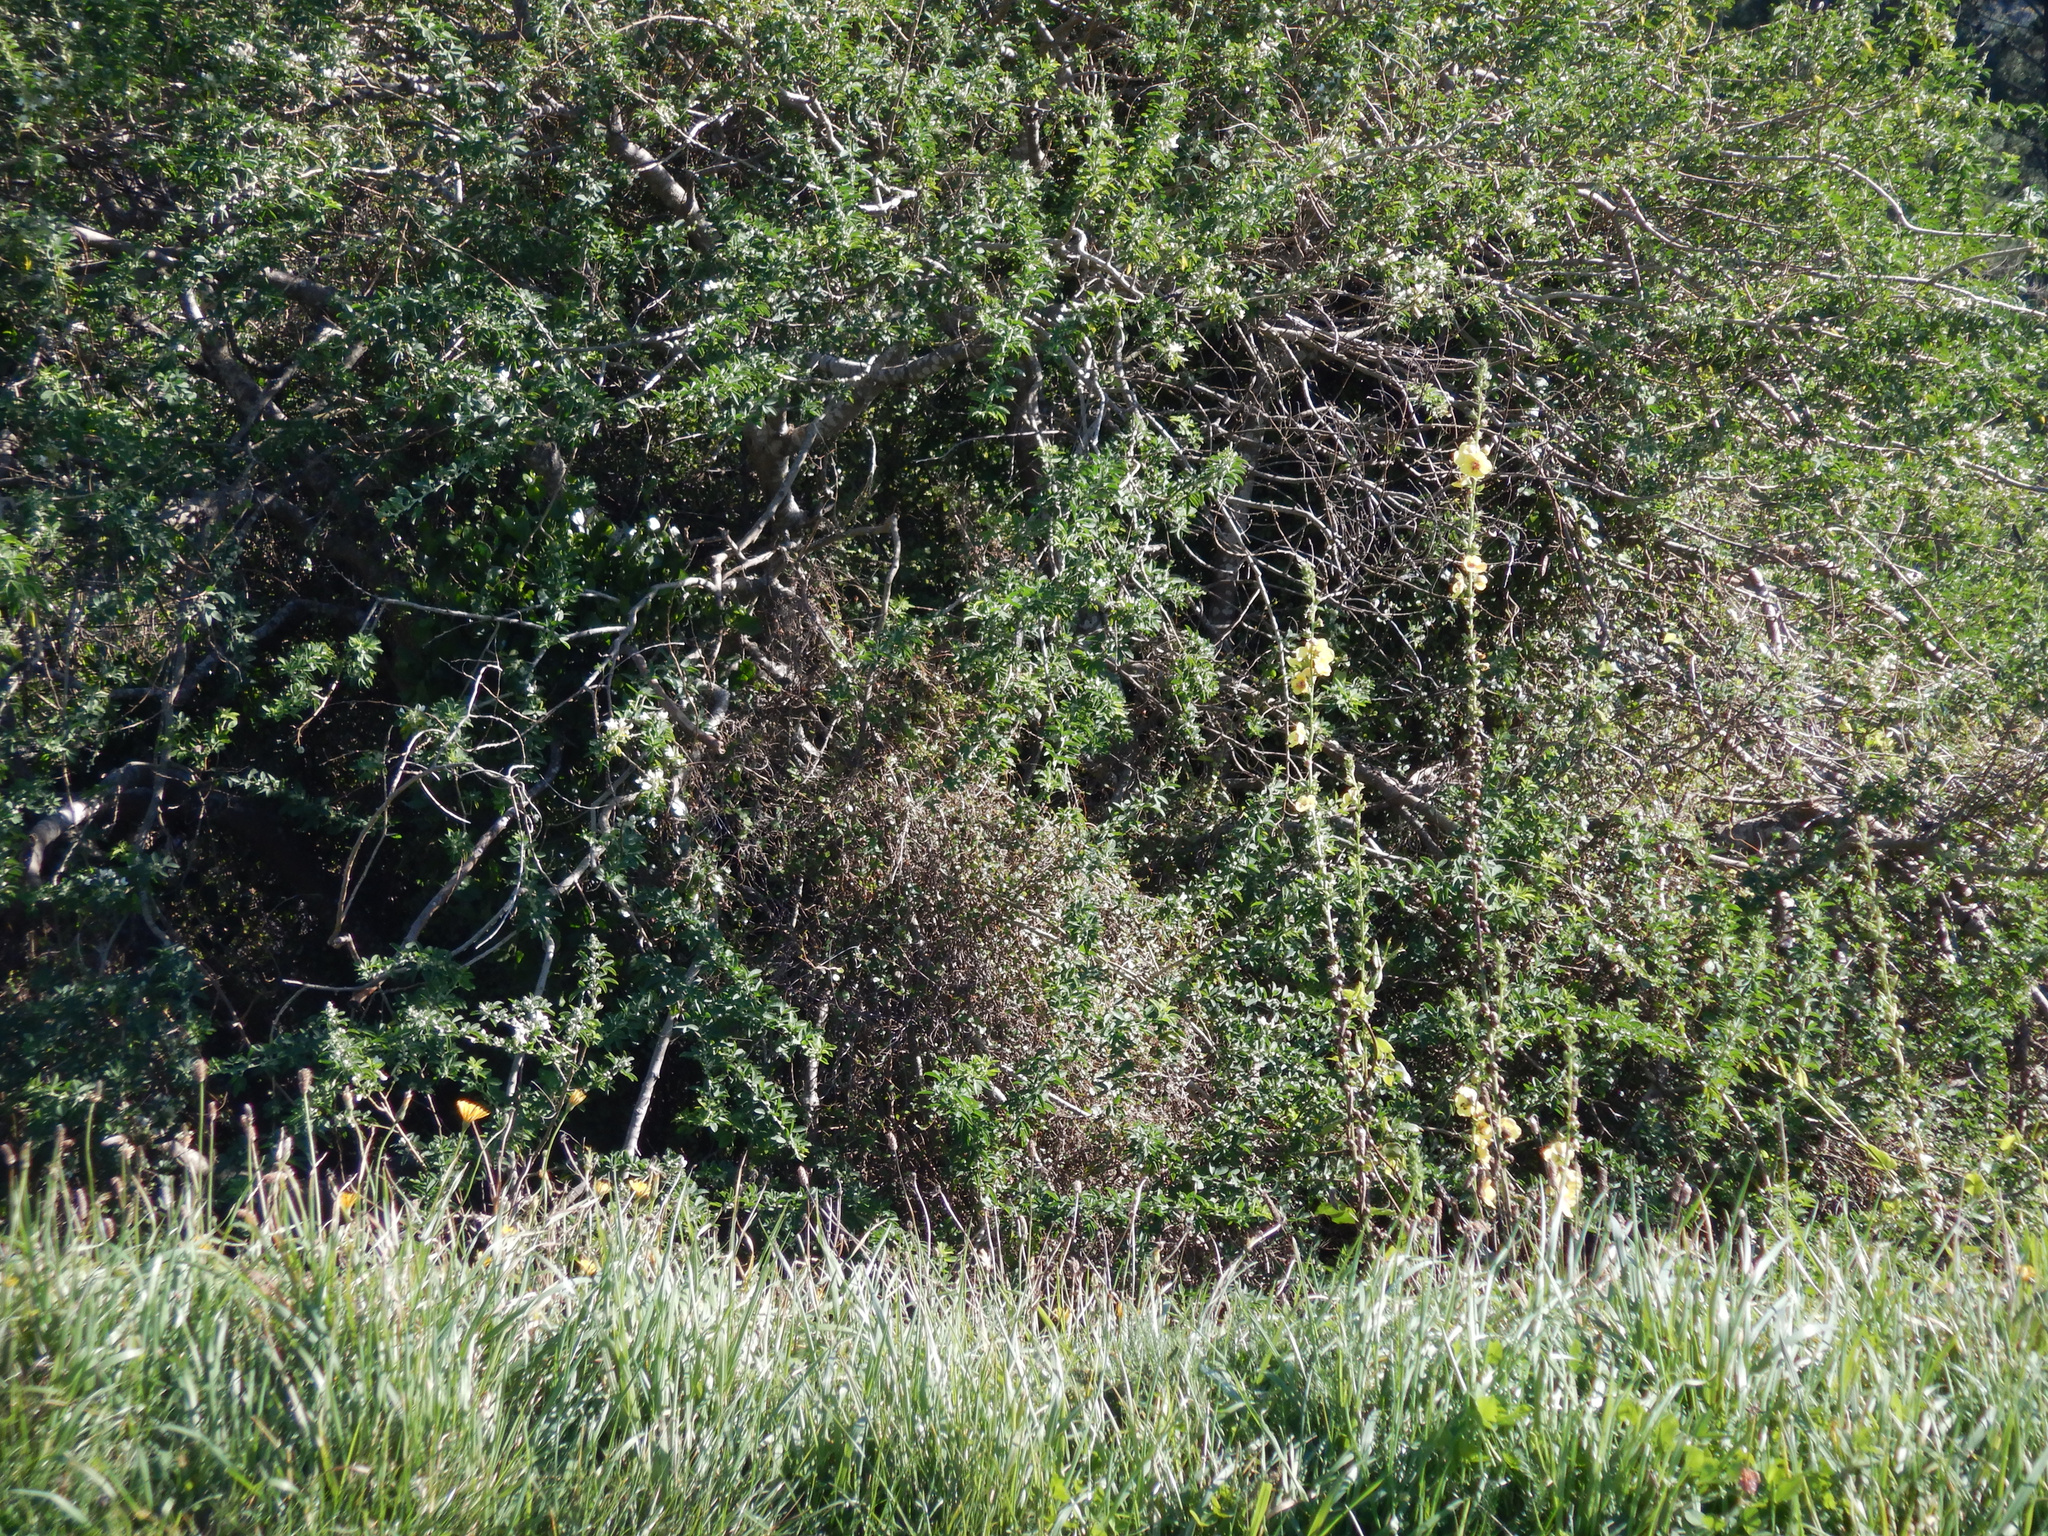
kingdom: Plantae
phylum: Tracheophyta
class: Magnoliopsida
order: Caryophyllales
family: Polygonaceae
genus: Muehlenbeckia
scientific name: Muehlenbeckia complexa
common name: Wireplant
